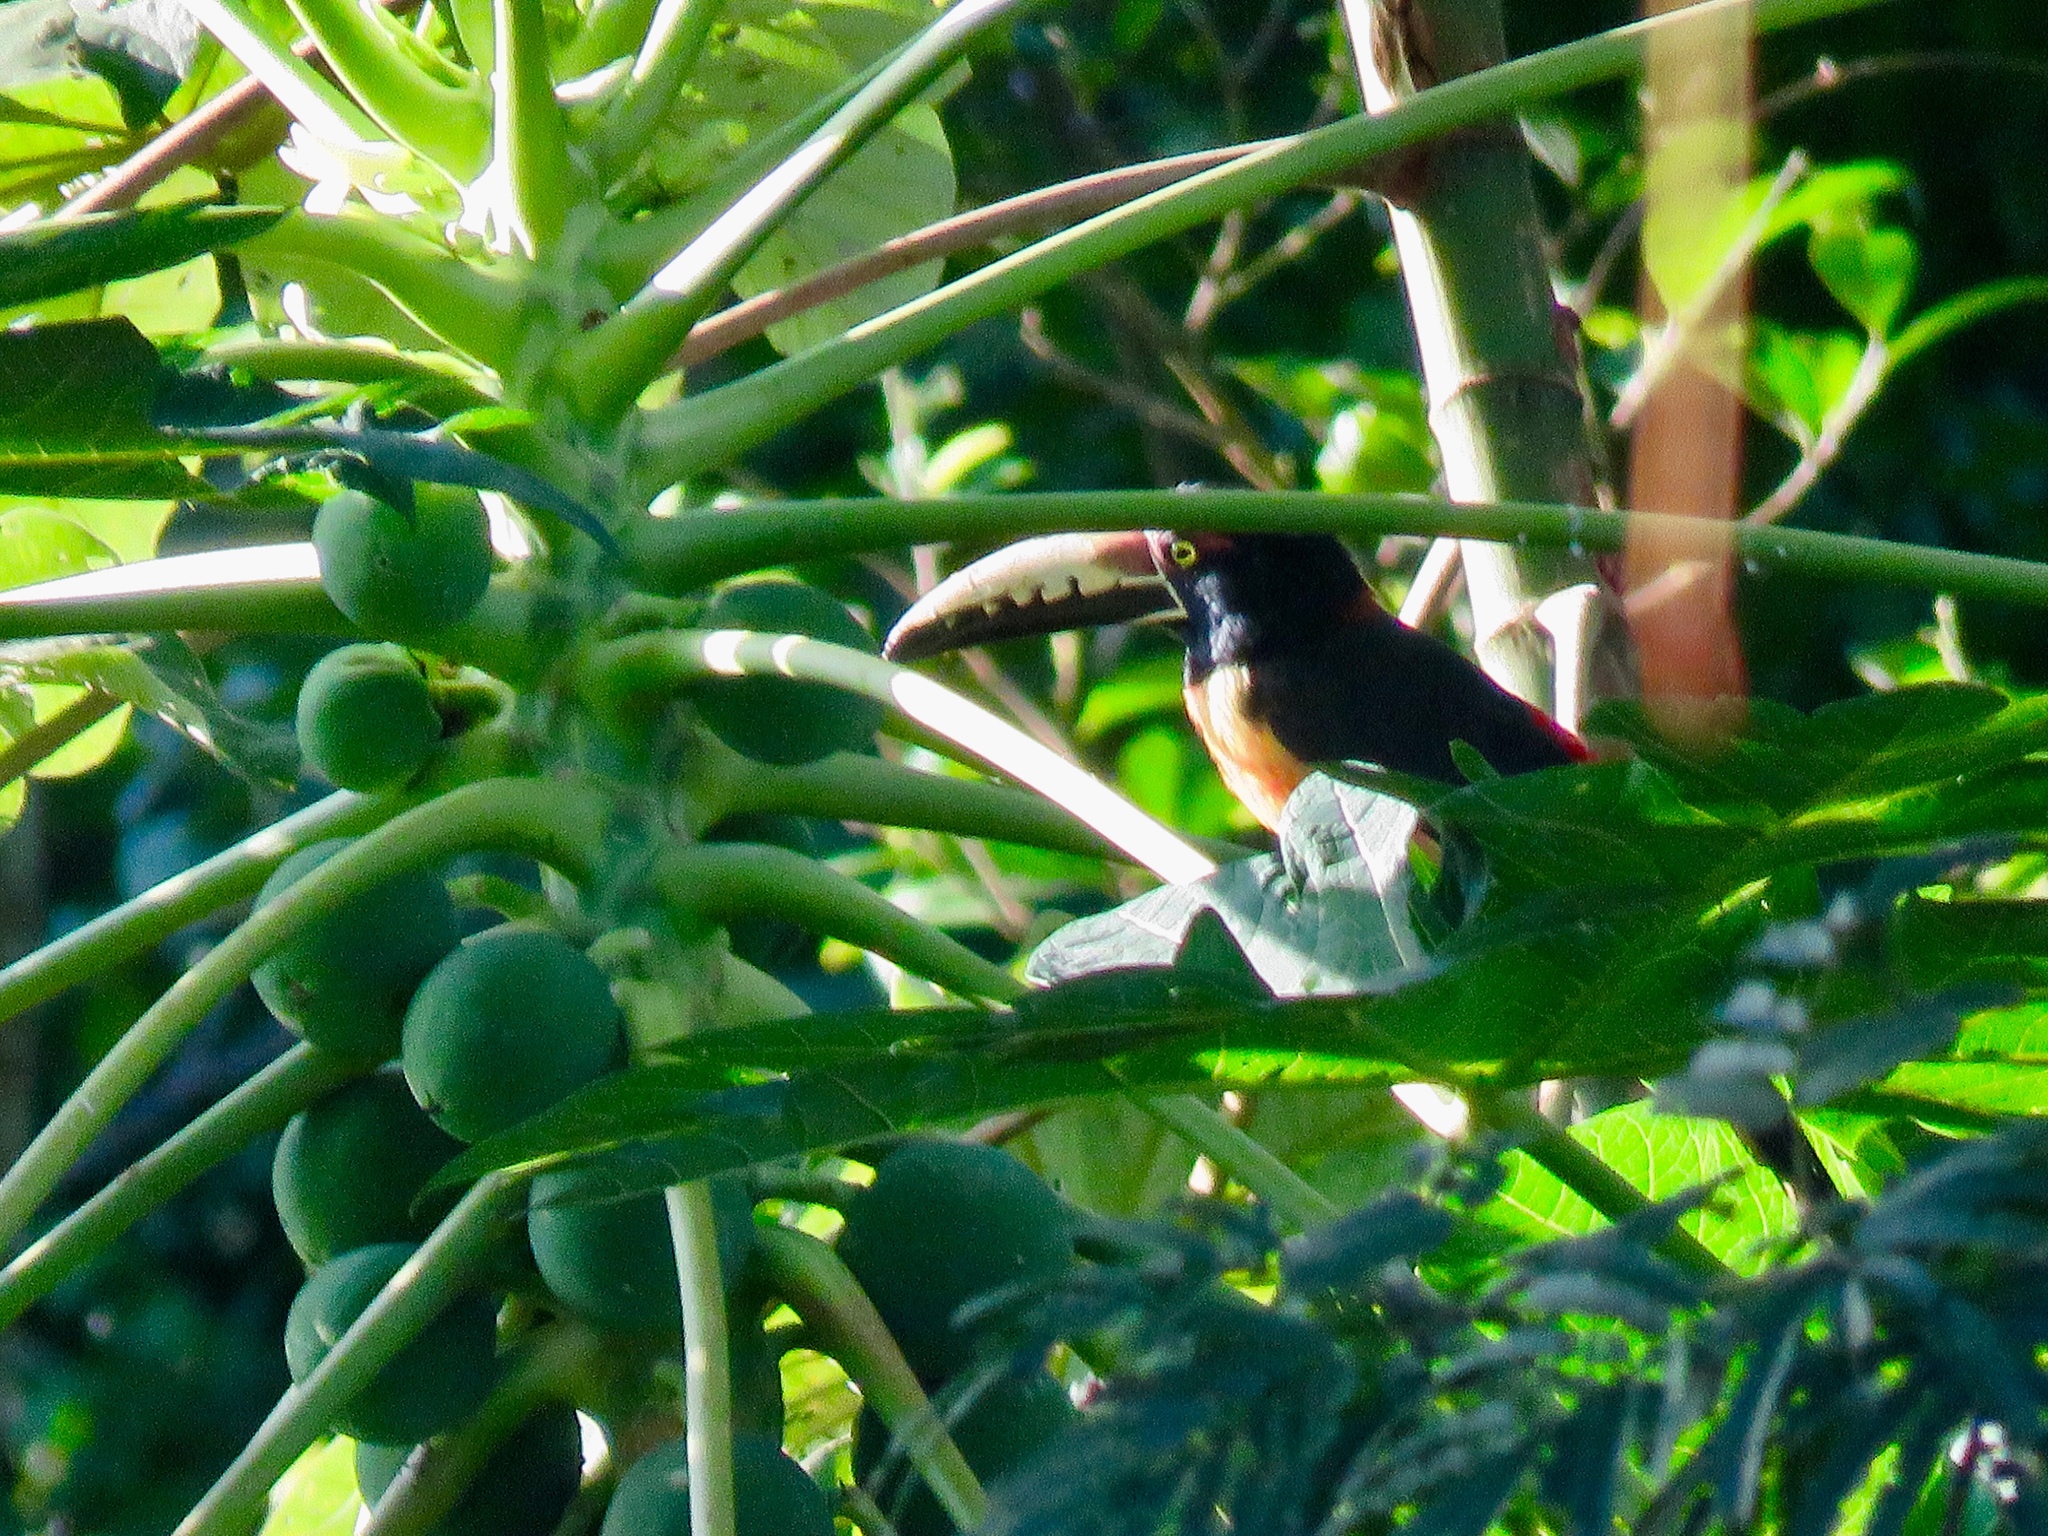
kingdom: Animalia
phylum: Chordata
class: Aves
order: Piciformes
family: Ramphastidae
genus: Pteroglossus
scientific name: Pteroglossus torquatus
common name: Collared aracari
